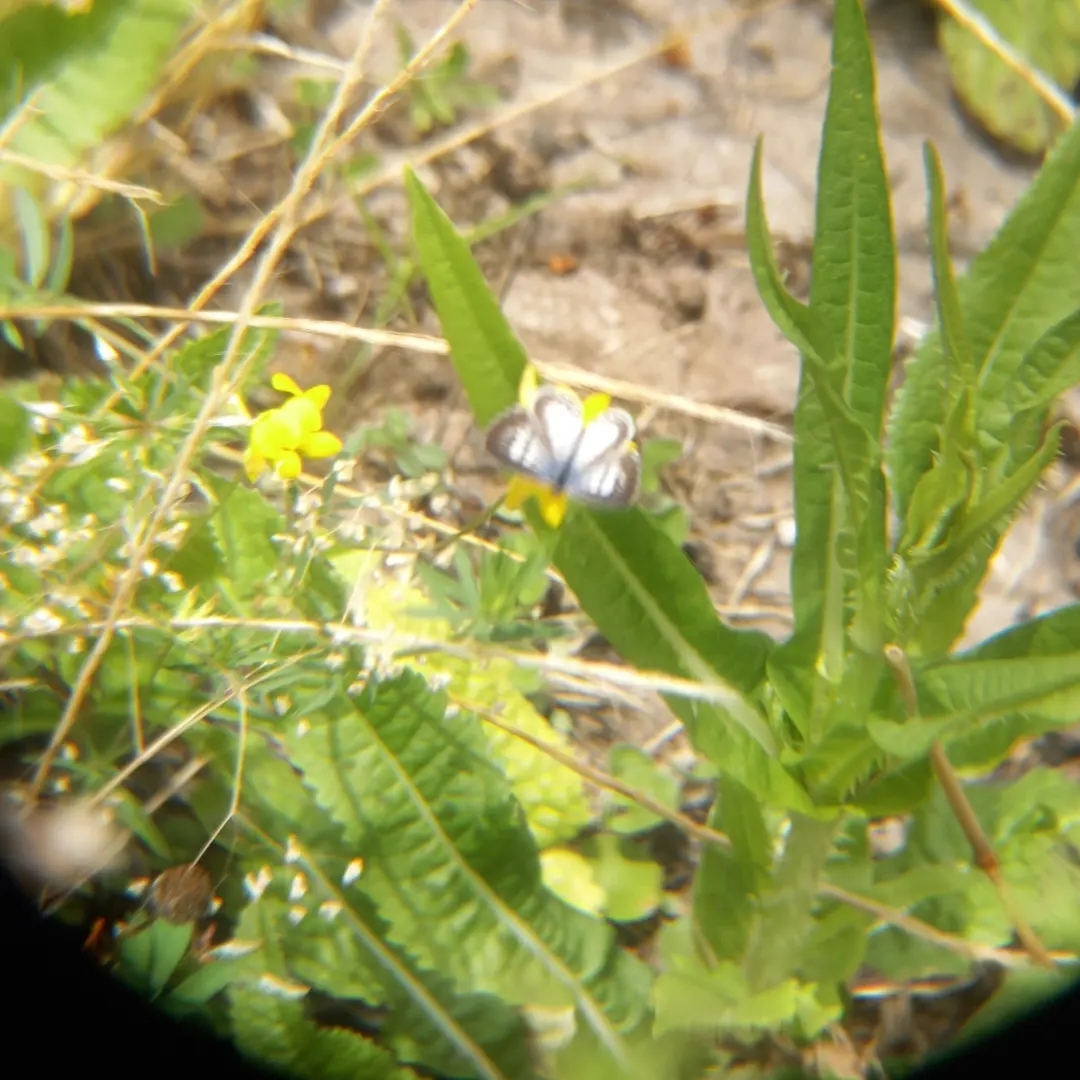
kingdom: Animalia
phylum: Arthropoda
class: Insecta
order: Lepidoptera
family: Lycaenidae
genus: Leptotes
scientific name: Leptotes cassius
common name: Cassius blue
